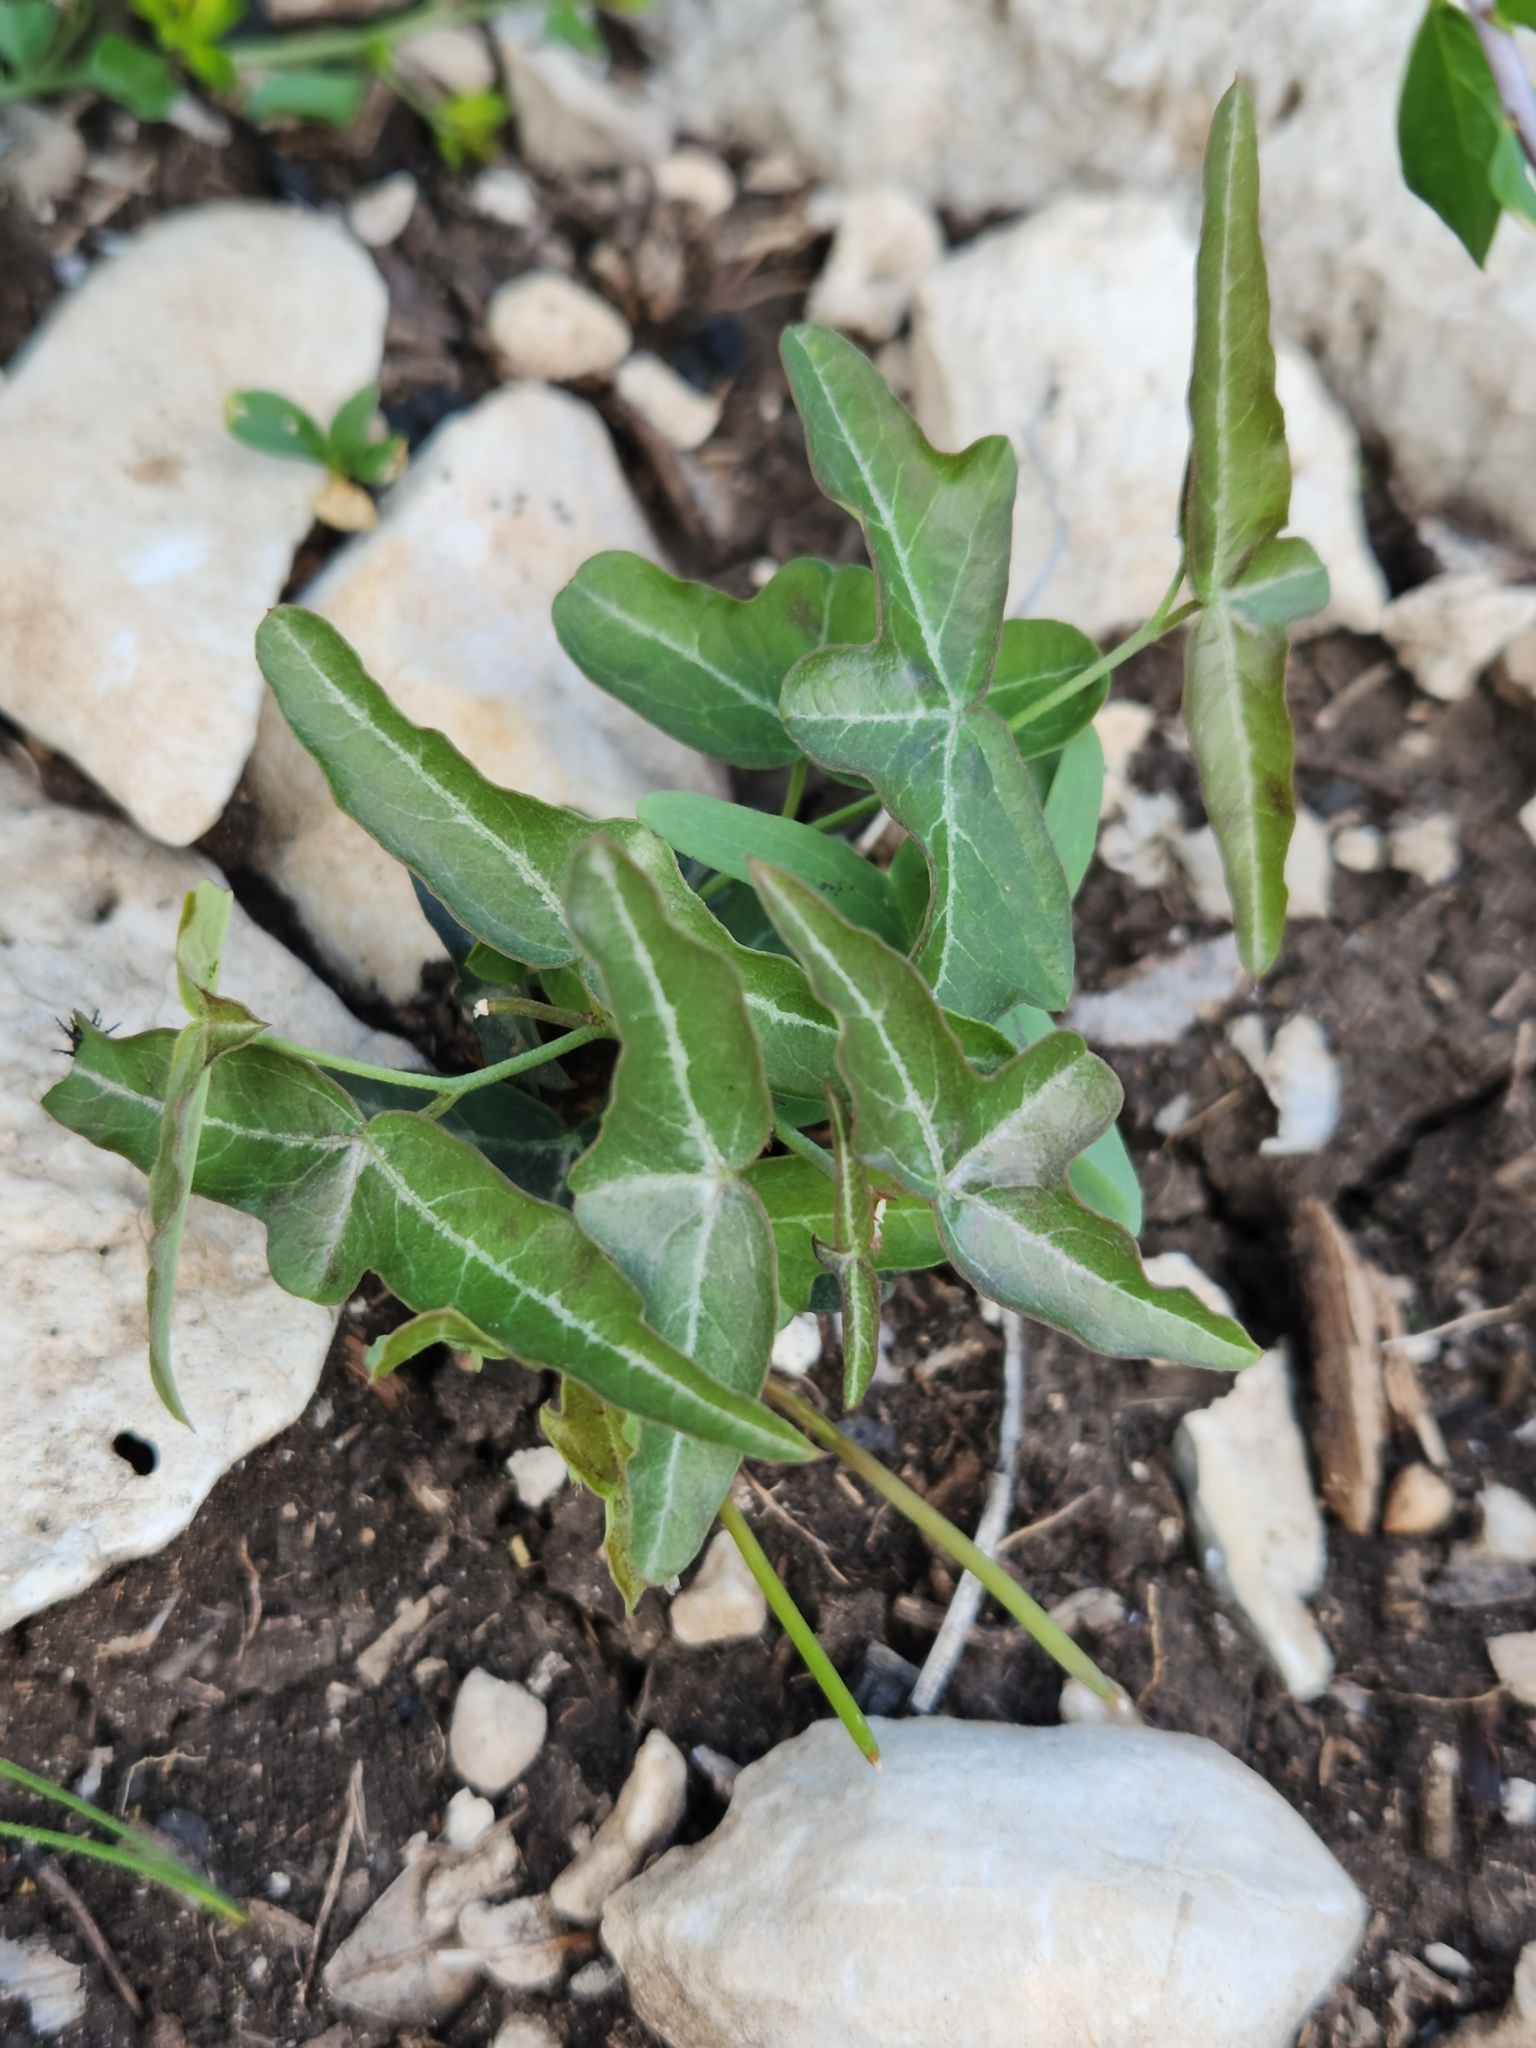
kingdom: Plantae
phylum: Tracheophyta
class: Magnoliopsida
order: Malpighiales
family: Passifloraceae
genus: Passiflora
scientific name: Passiflora tenuiloba
